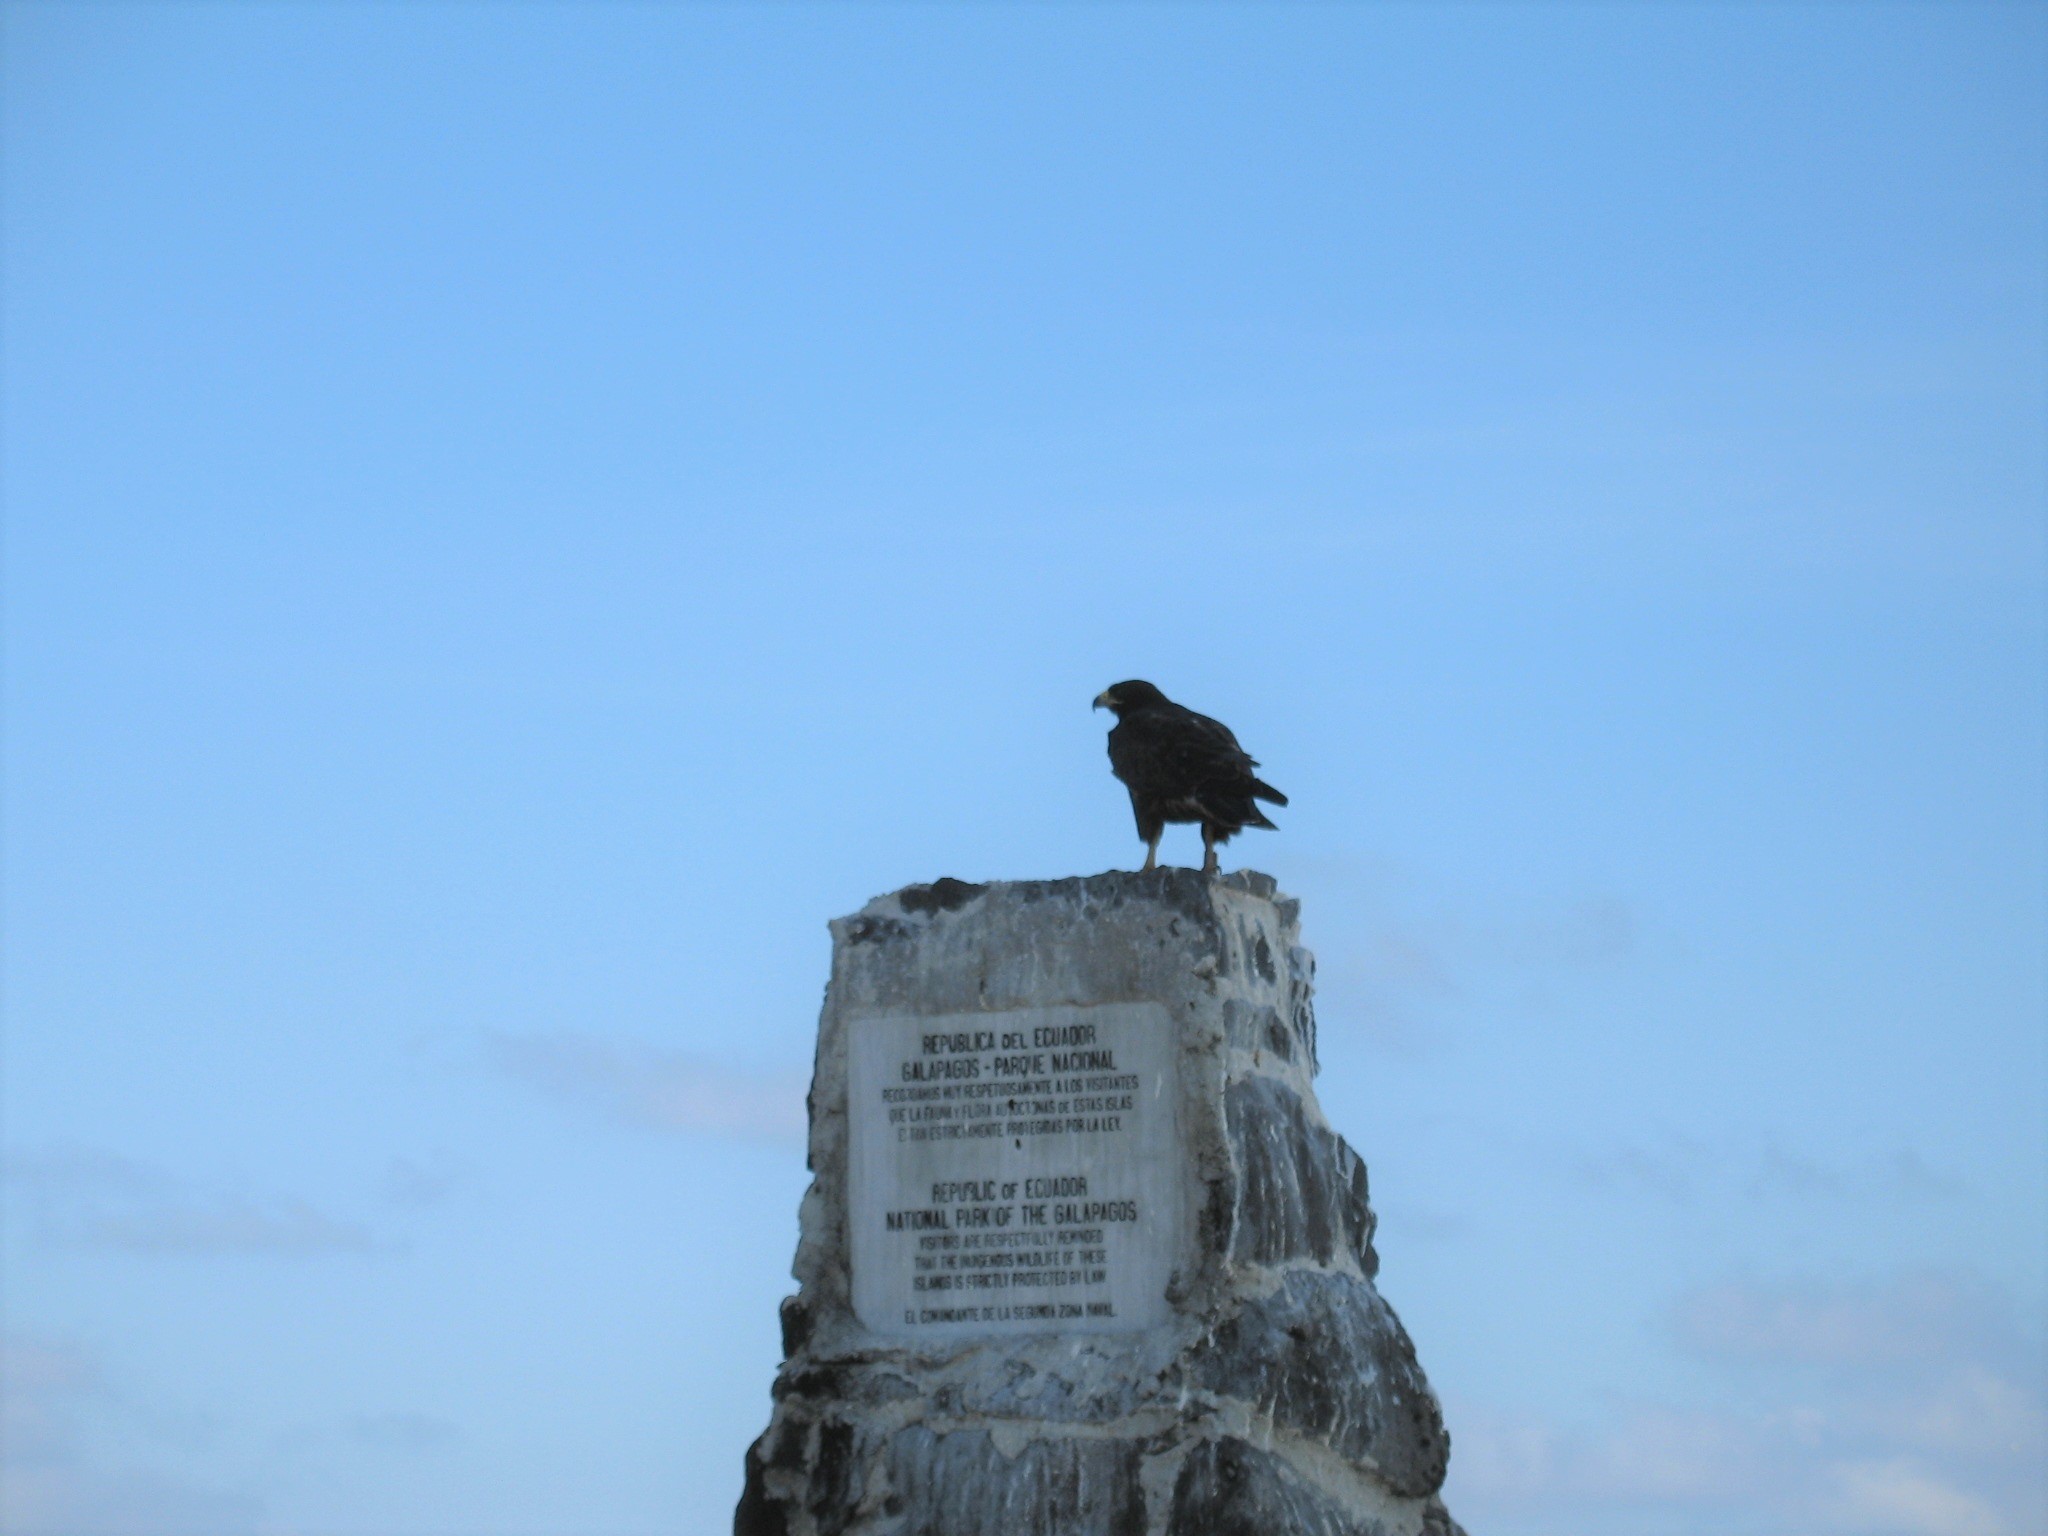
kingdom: Animalia
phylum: Chordata
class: Aves
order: Accipitriformes
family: Accipitridae
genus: Buteo
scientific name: Buteo galapagoensis
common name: Galapagos hawk
